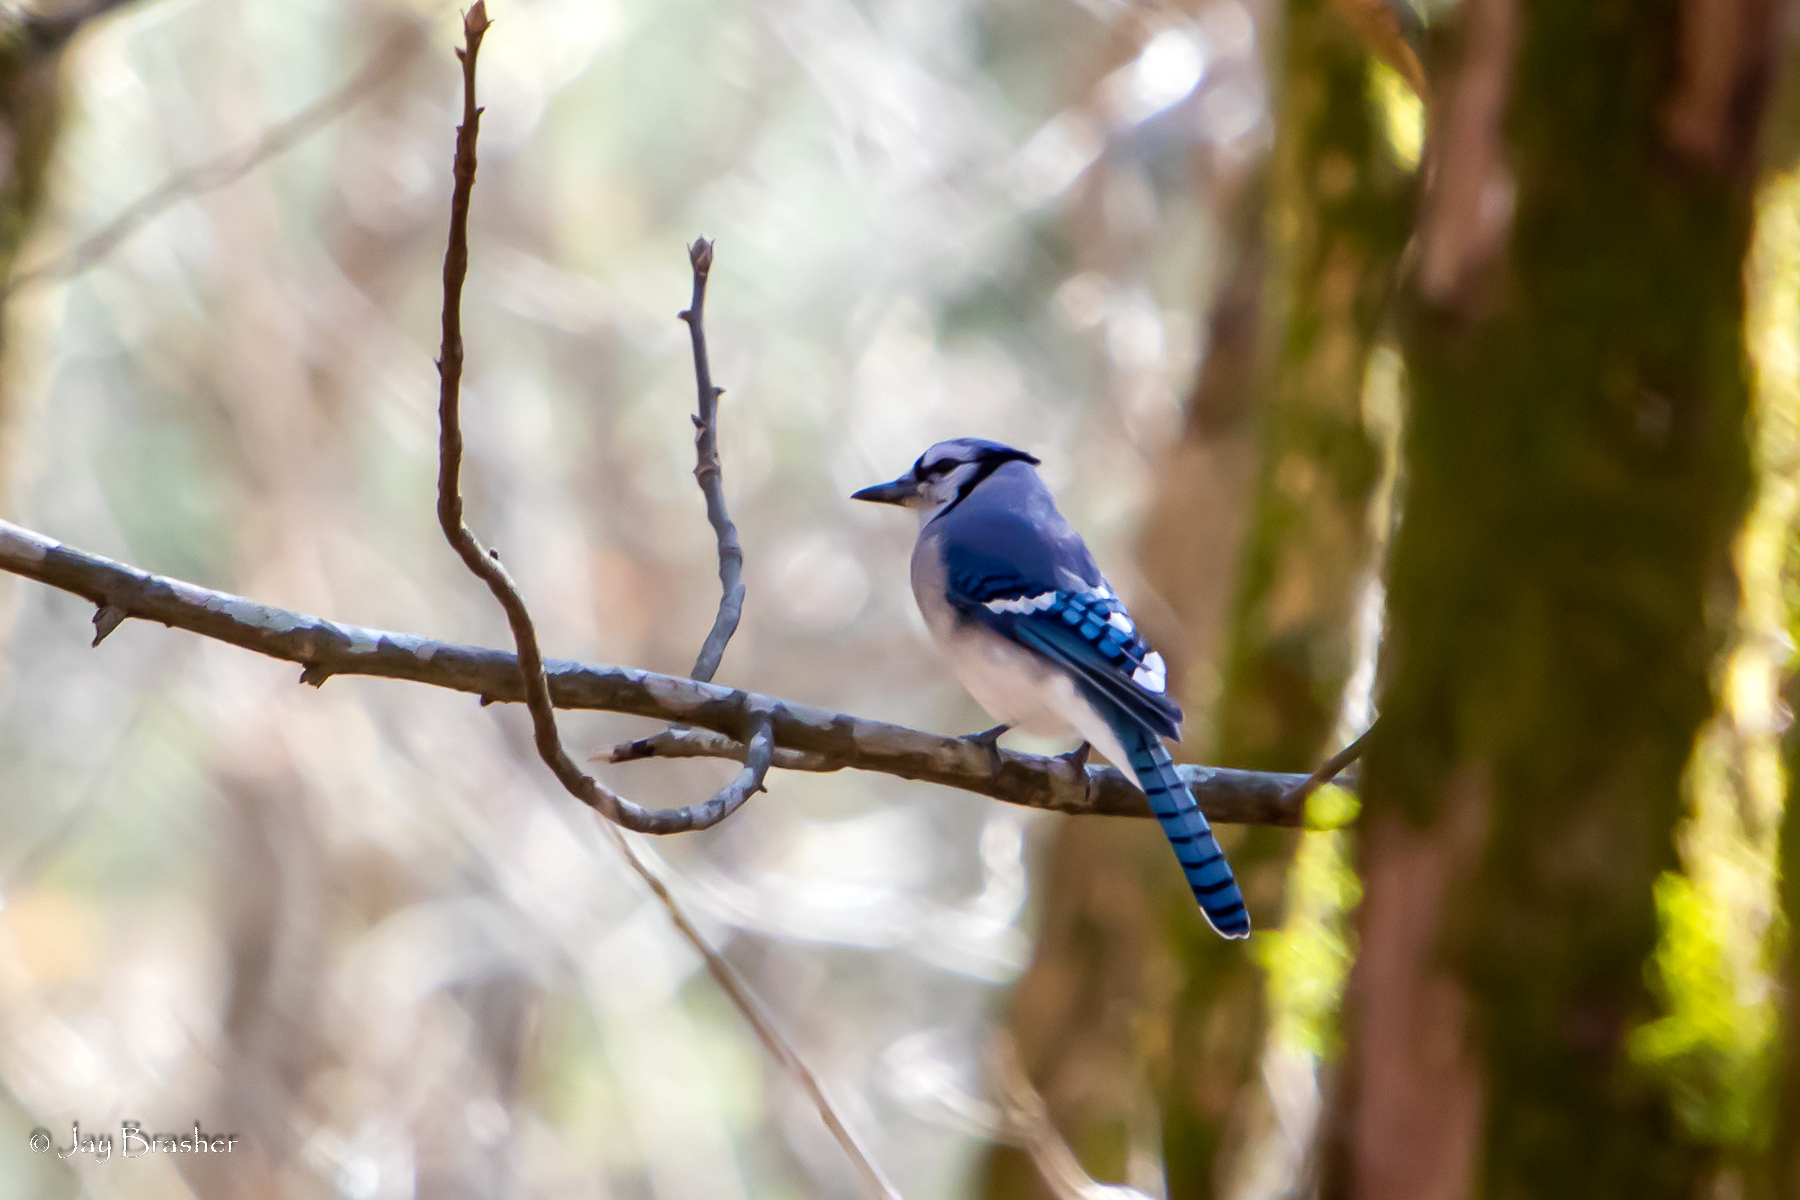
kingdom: Animalia
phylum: Chordata
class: Aves
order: Passeriformes
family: Corvidae
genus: Cyanocitta
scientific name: Cyanocitta cristata
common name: Blue jay
